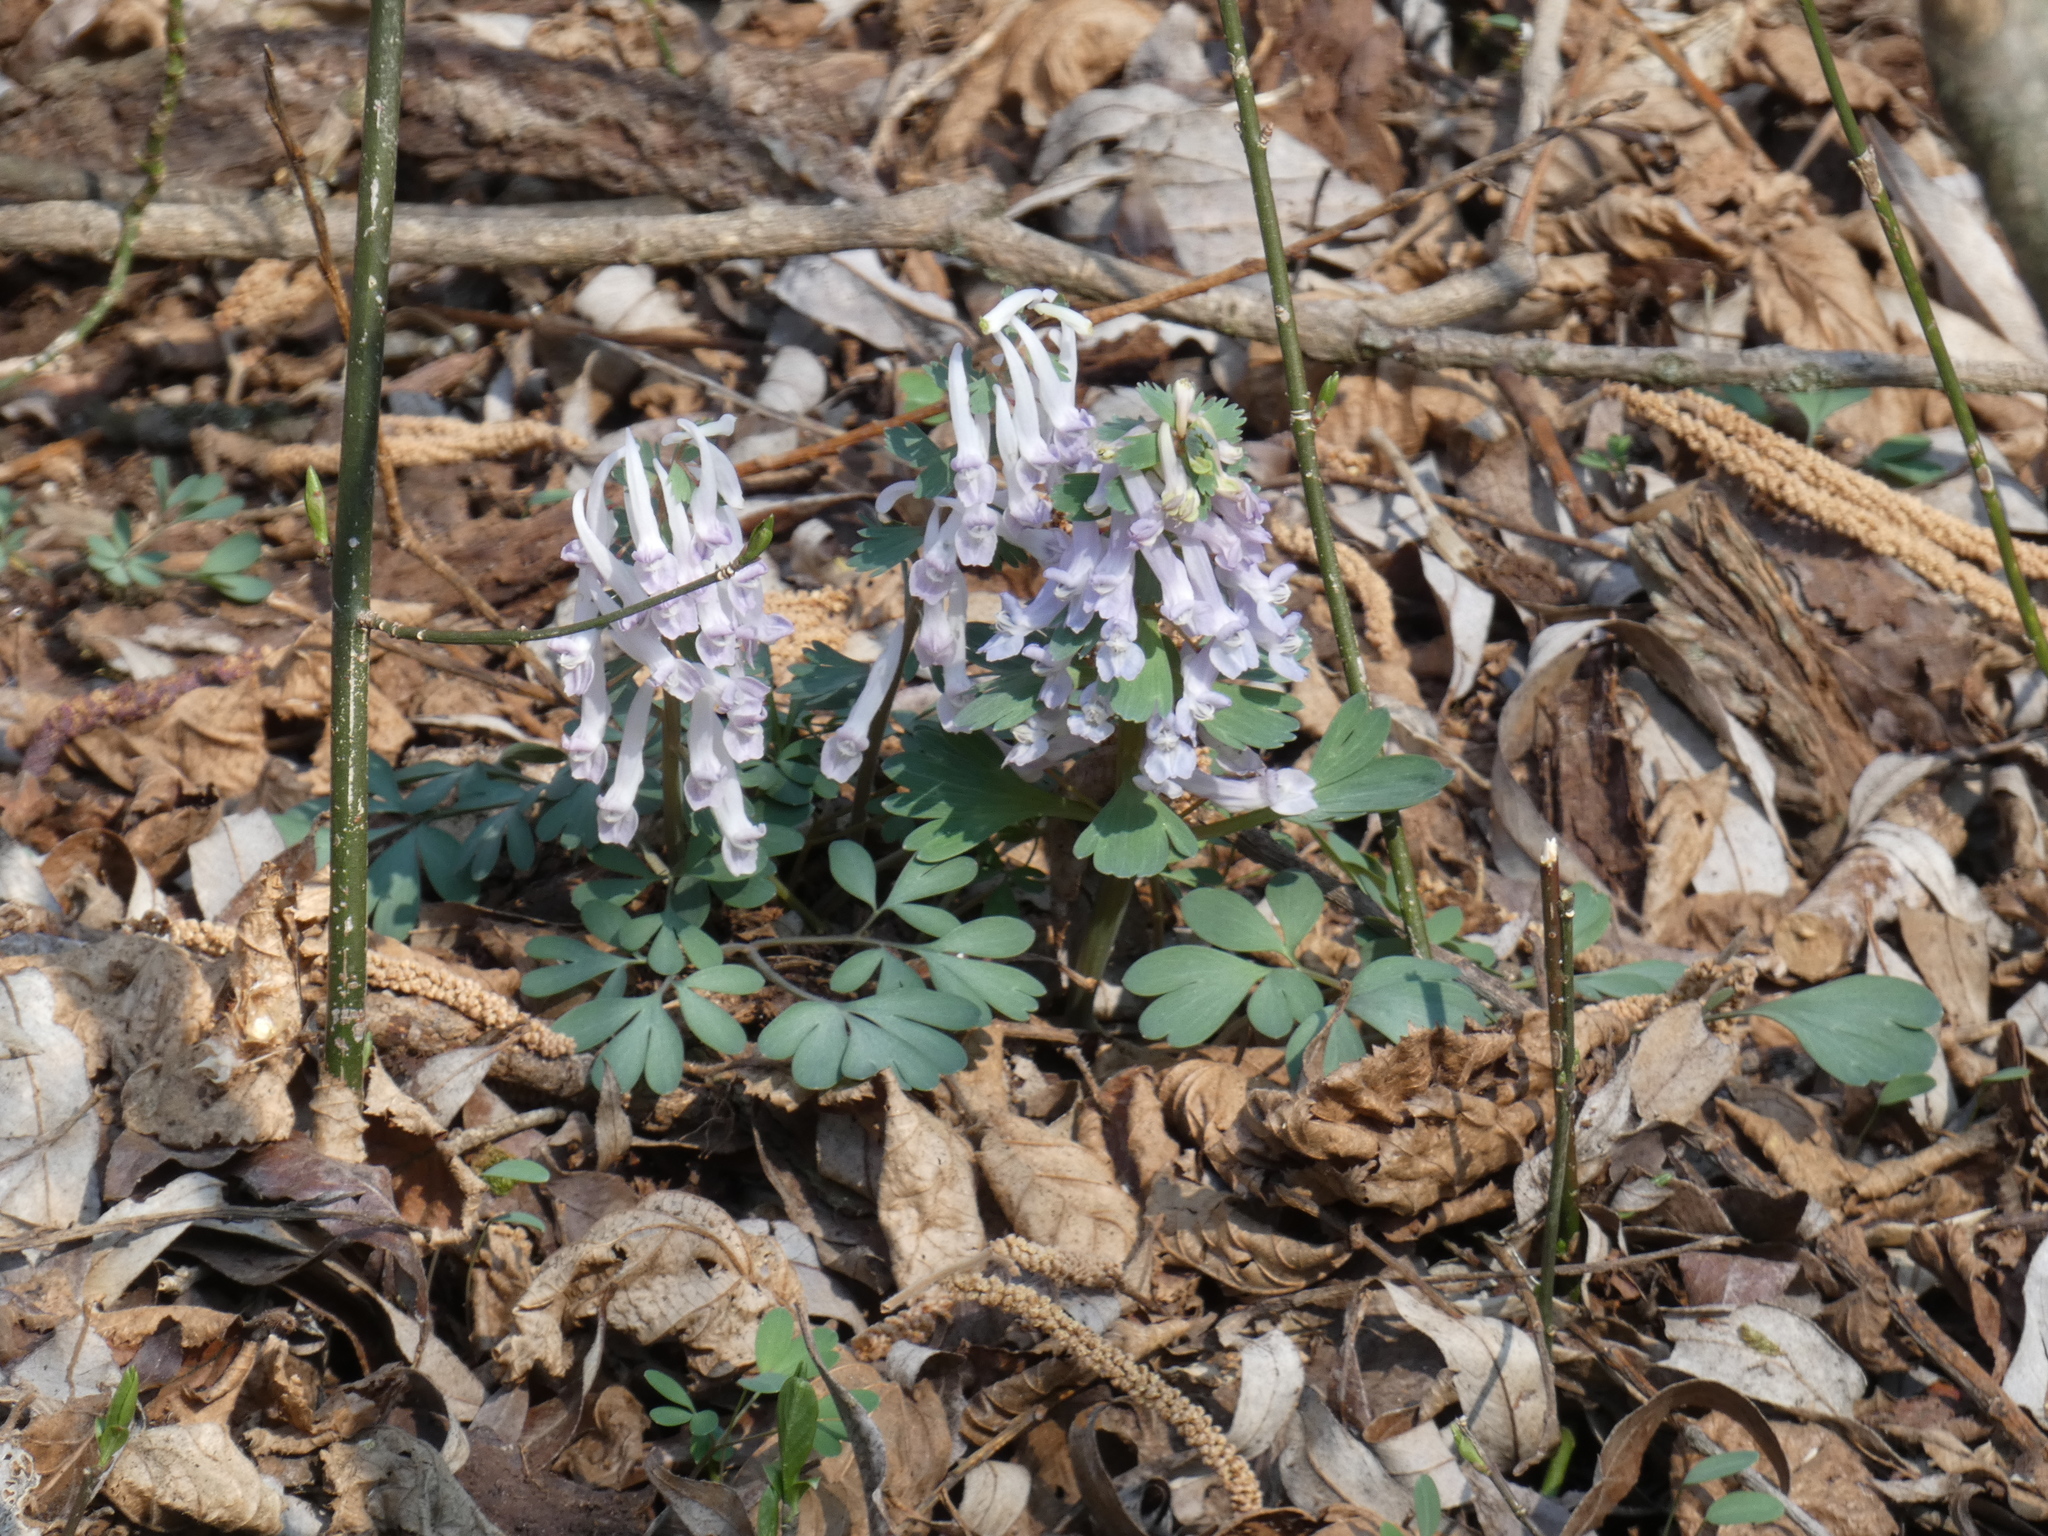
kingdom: Plantae
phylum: Tracheophyta
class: Magnoliopsida
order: Ranunculales
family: Papaveraceae
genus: Corydalis
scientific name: Corydalis solida
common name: Bird-in-a-bush
